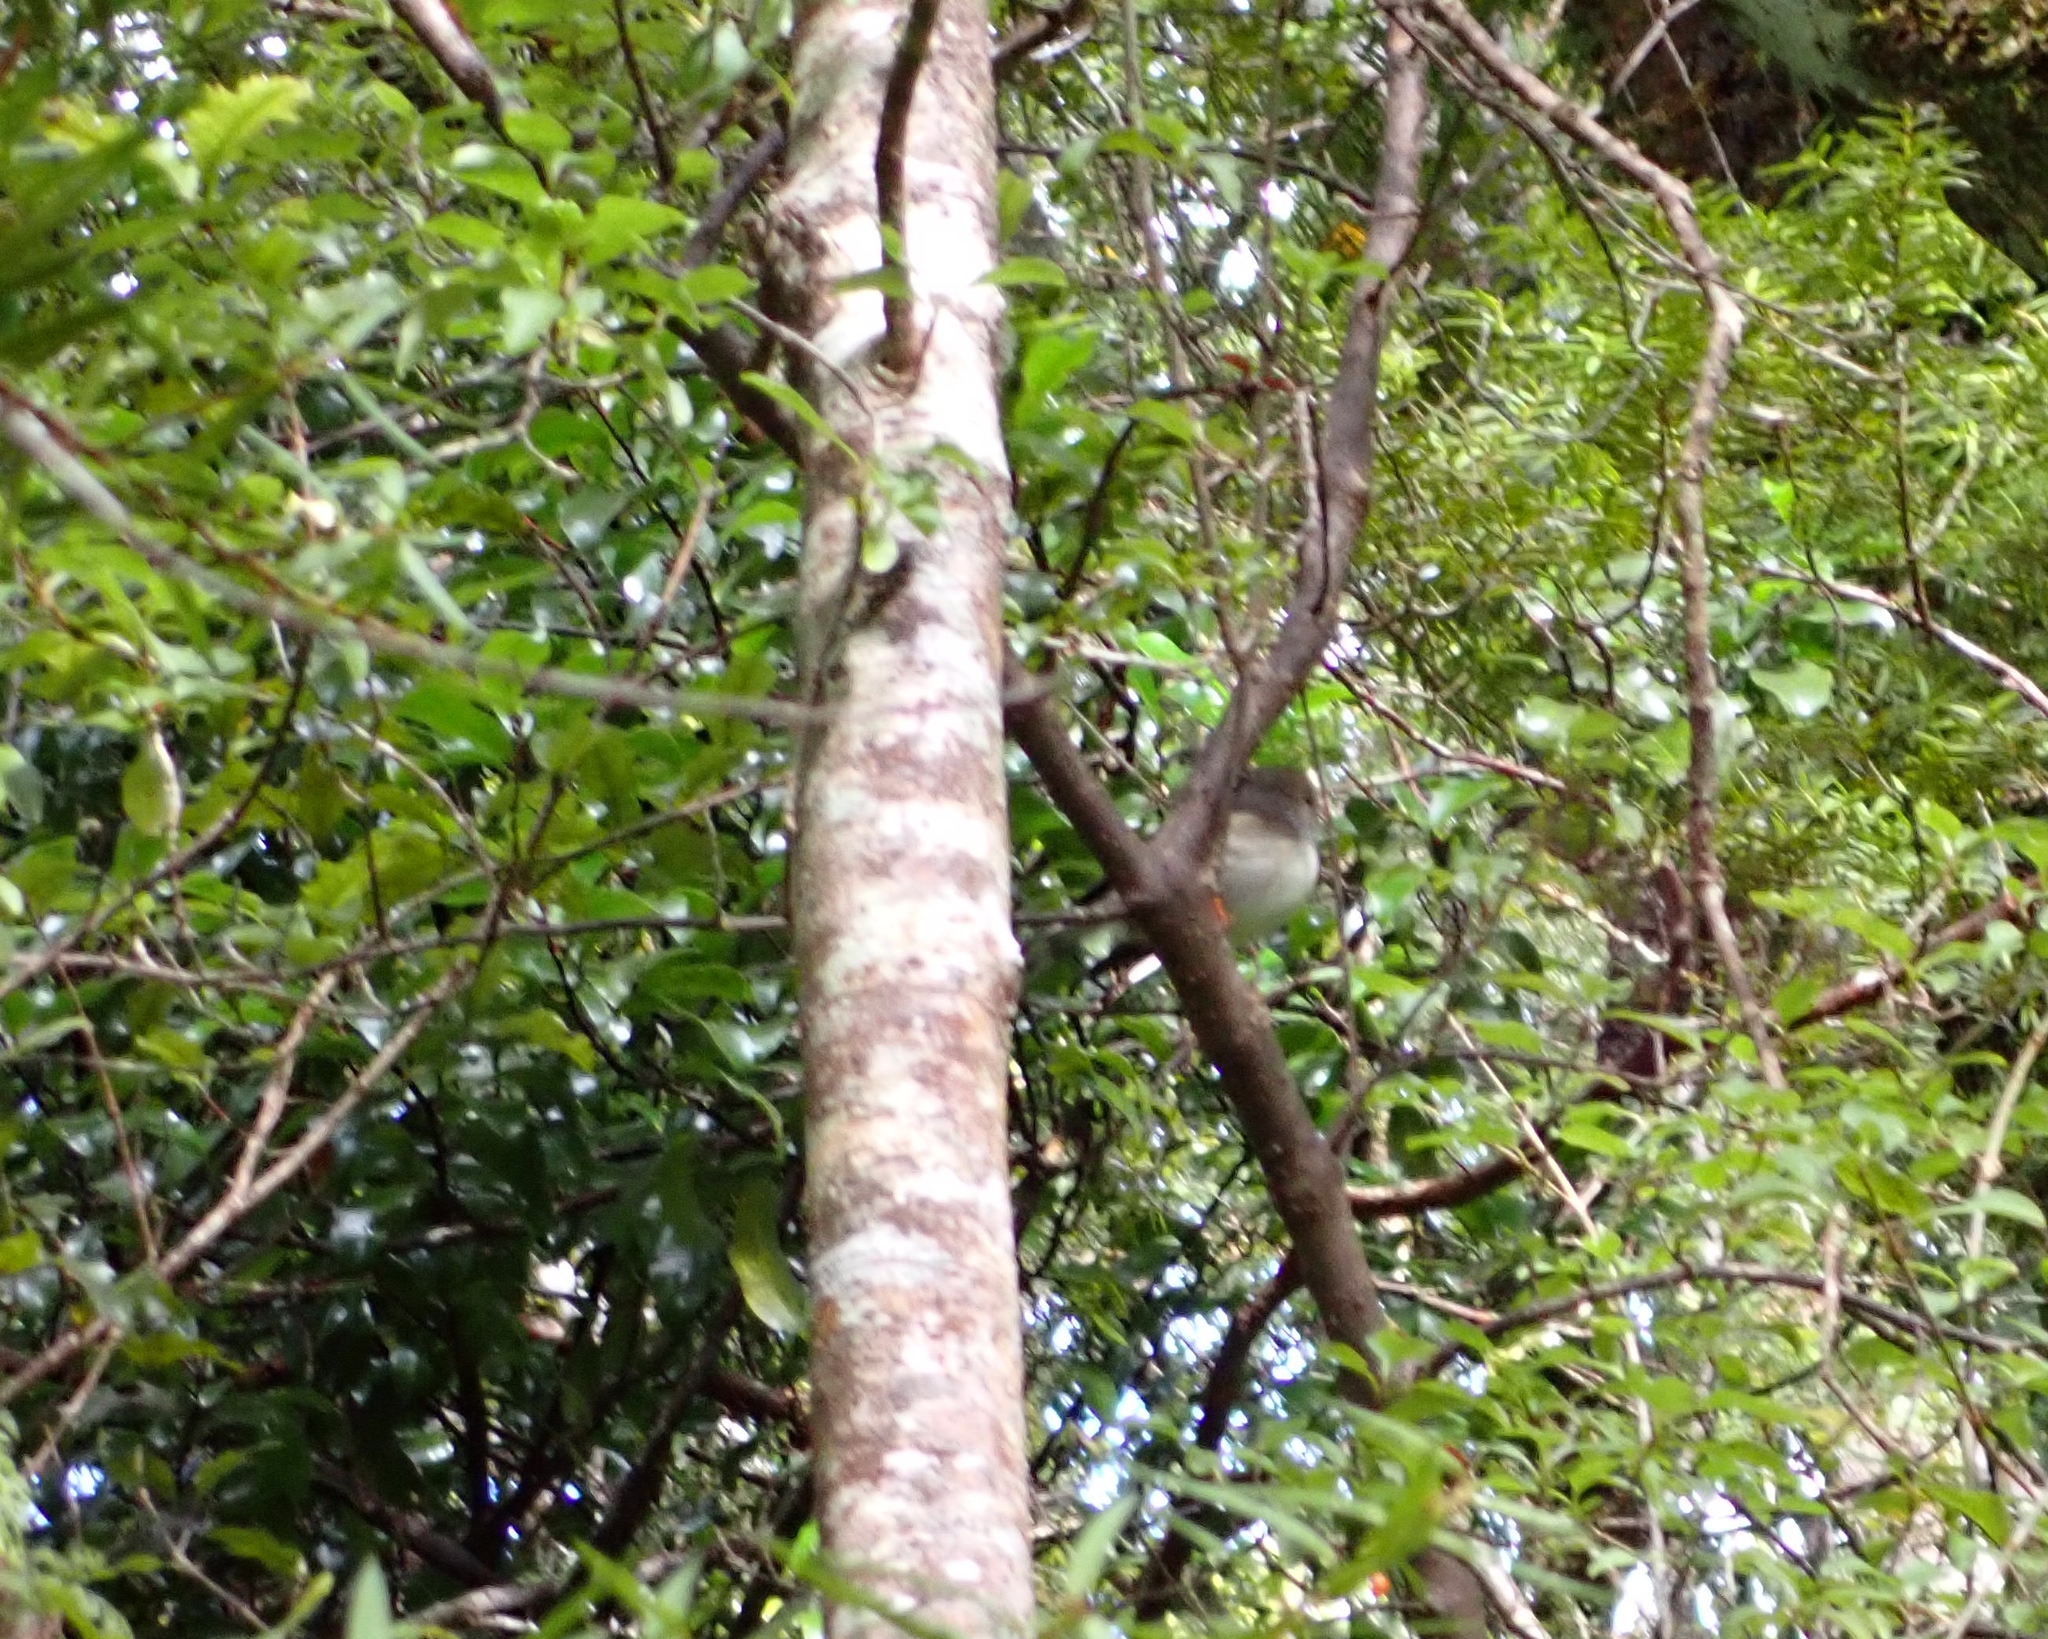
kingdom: Animalia
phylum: Chordata
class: Aves
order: Passeriformes
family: Petroicidae
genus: Petroica
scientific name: Petroica macrocephala
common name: Tomtit
